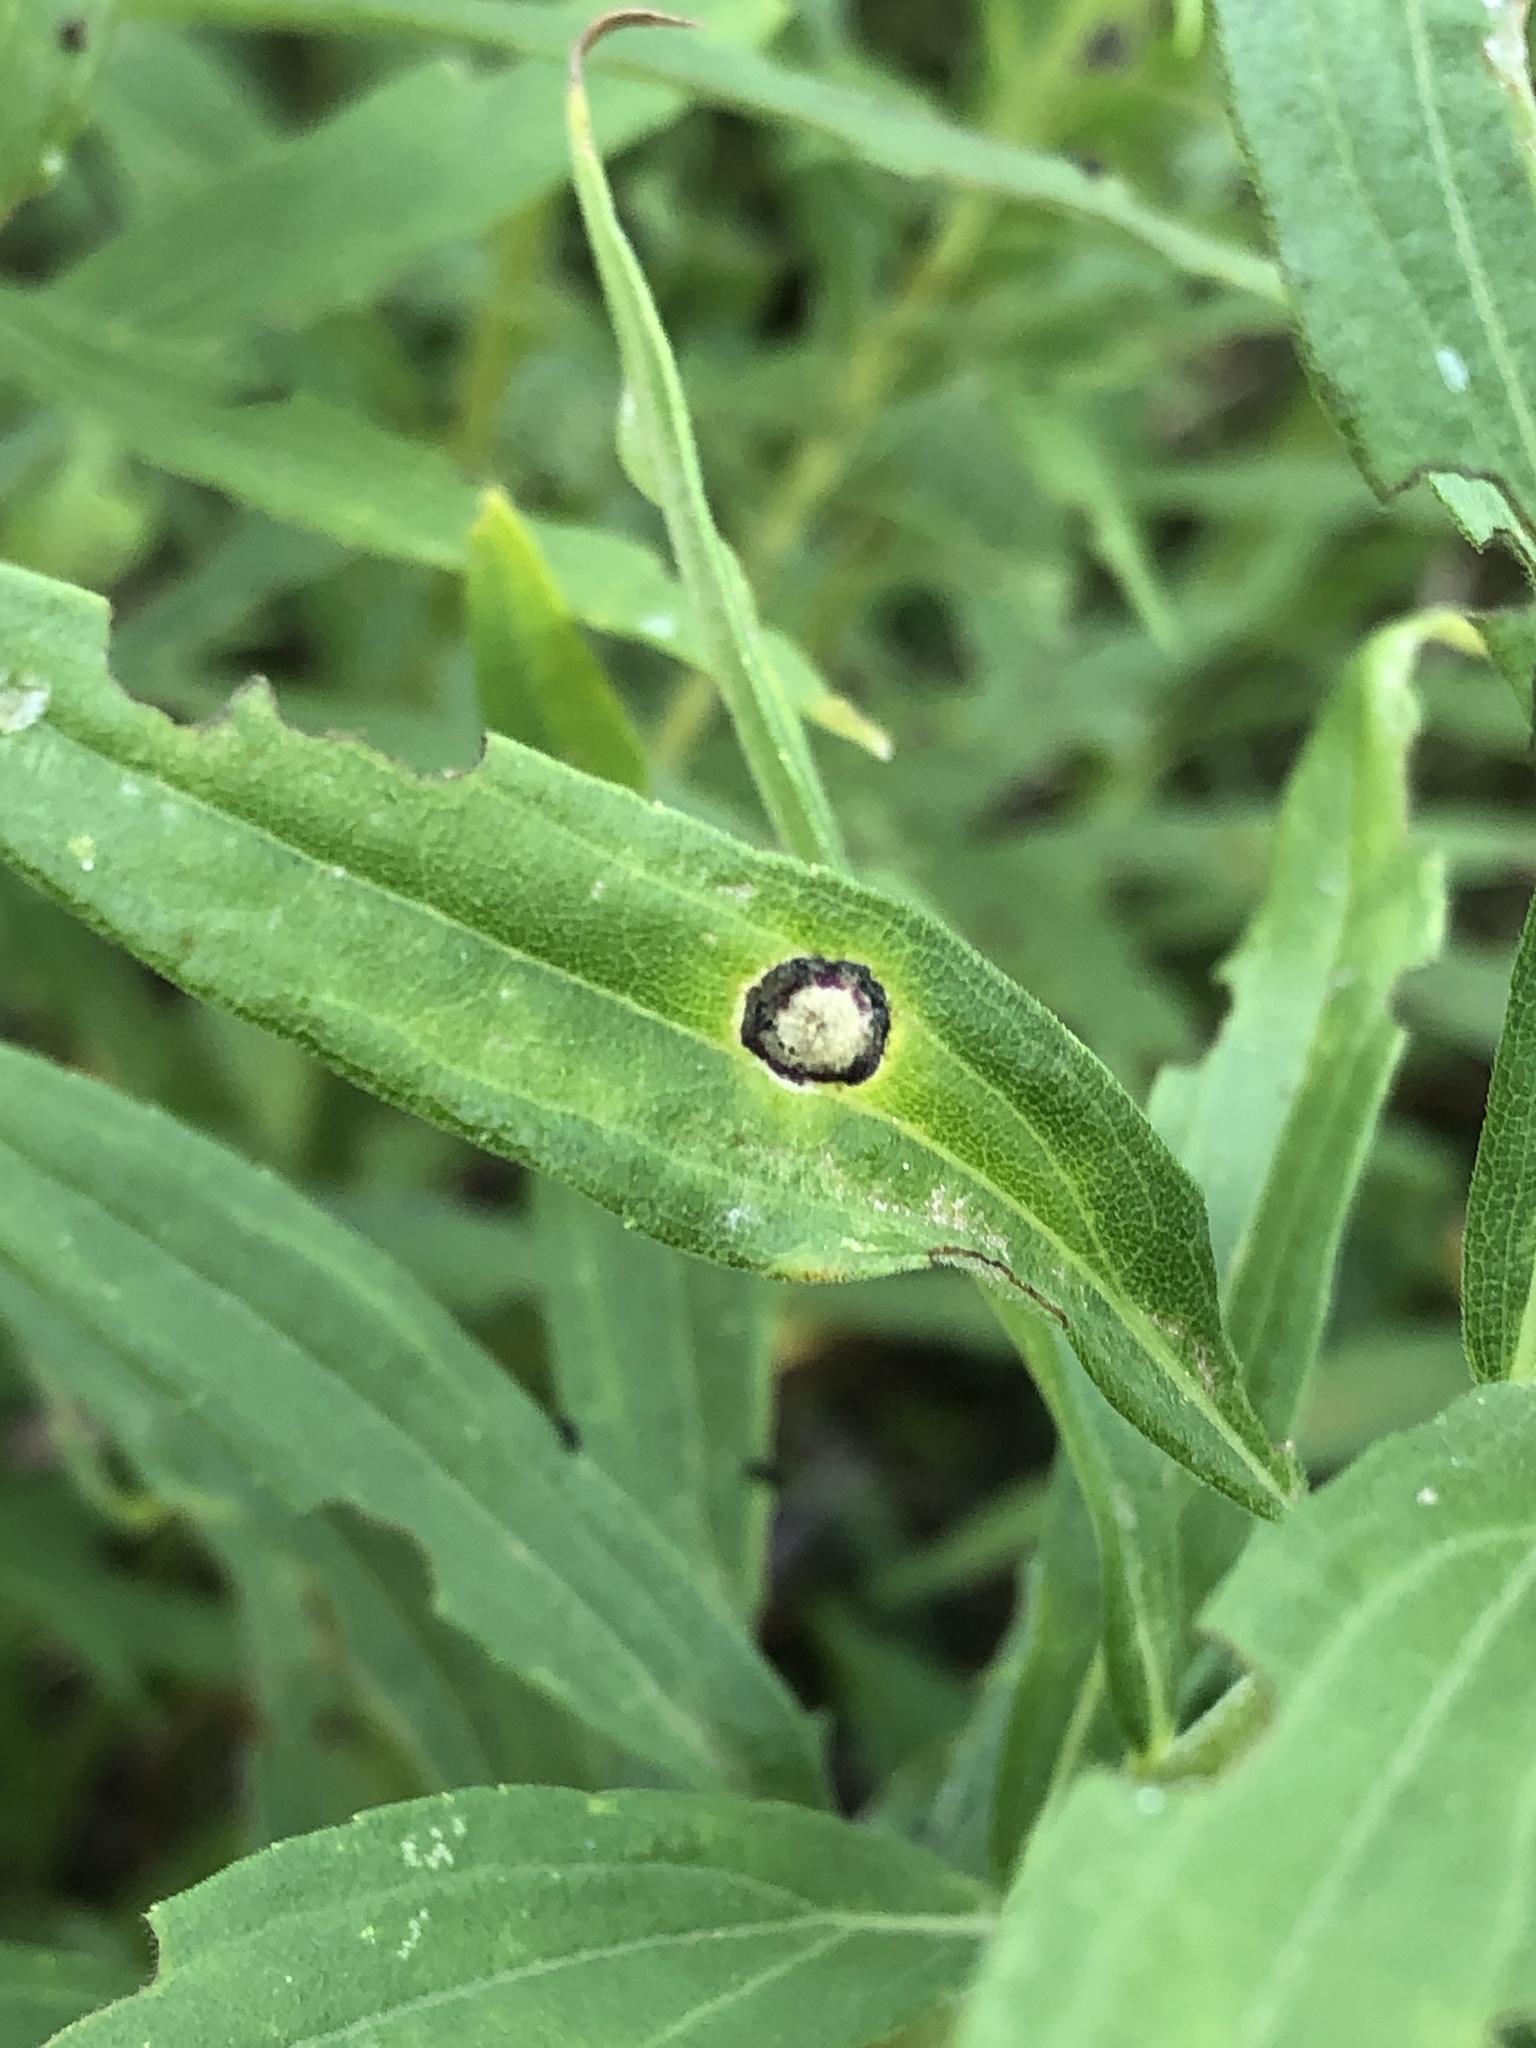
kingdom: Animalia
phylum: Arthropoda
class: Insecta
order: Diptera
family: Cecidomyiidae
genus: Asteromyia
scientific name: Asteromyia carbonifera
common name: Carbonifera goldenrod gall midge
